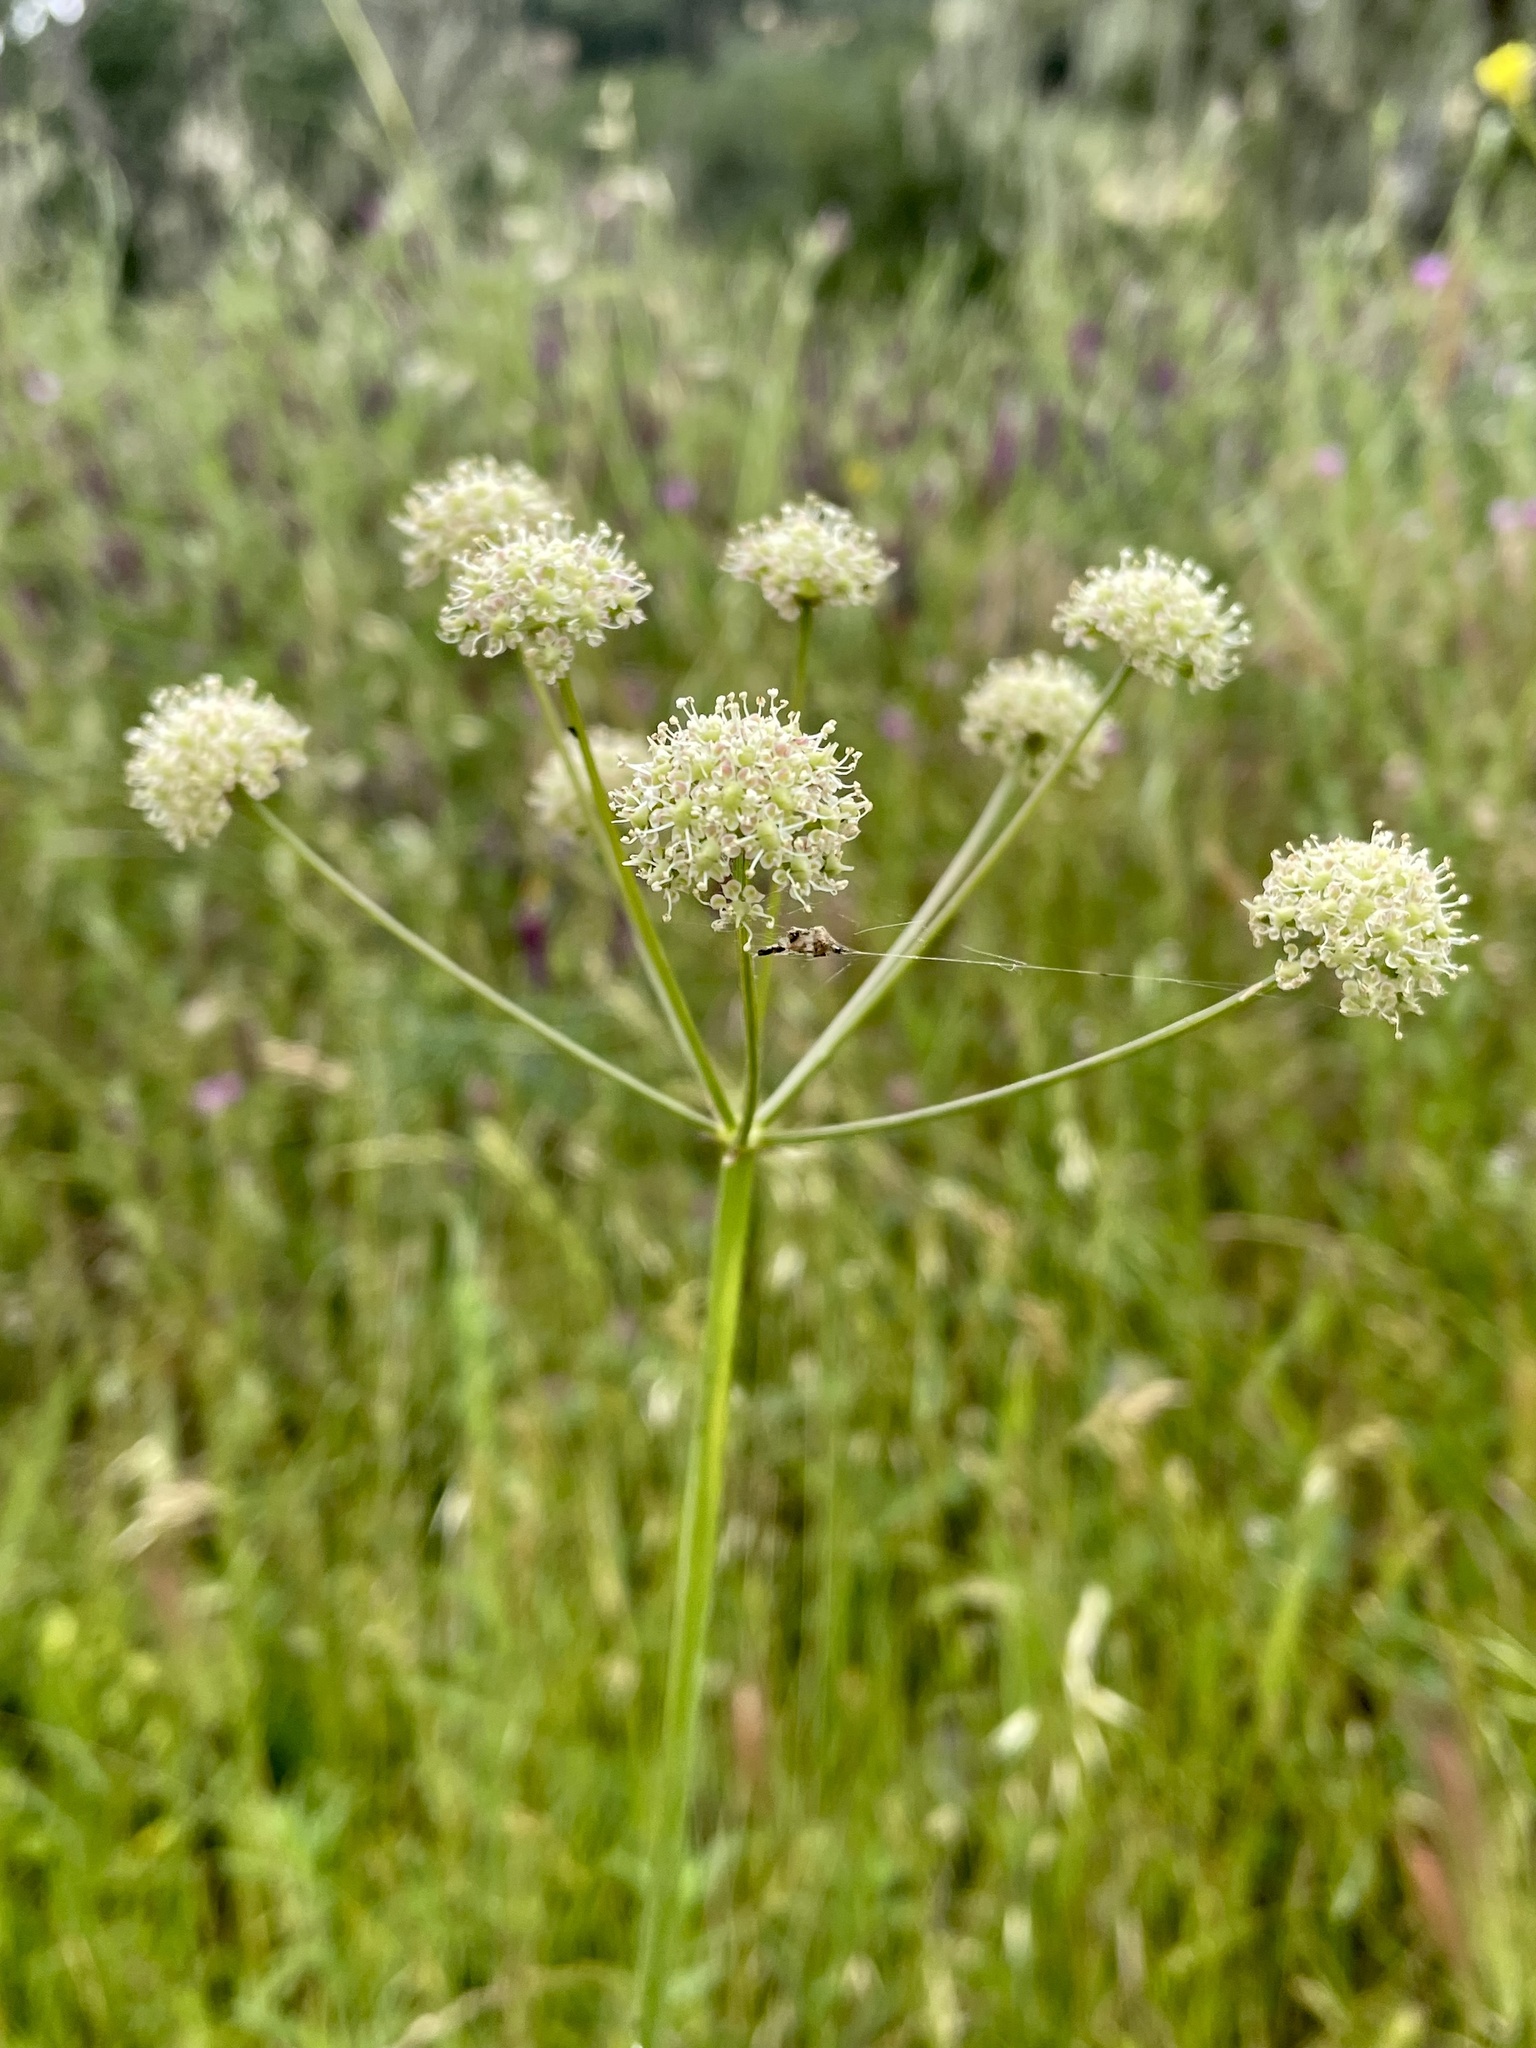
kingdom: Plantae
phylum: Tracheophyta
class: Magnoliopsida
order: Apiales
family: Apiaceae
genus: Perideridia
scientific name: Perideridia californica
